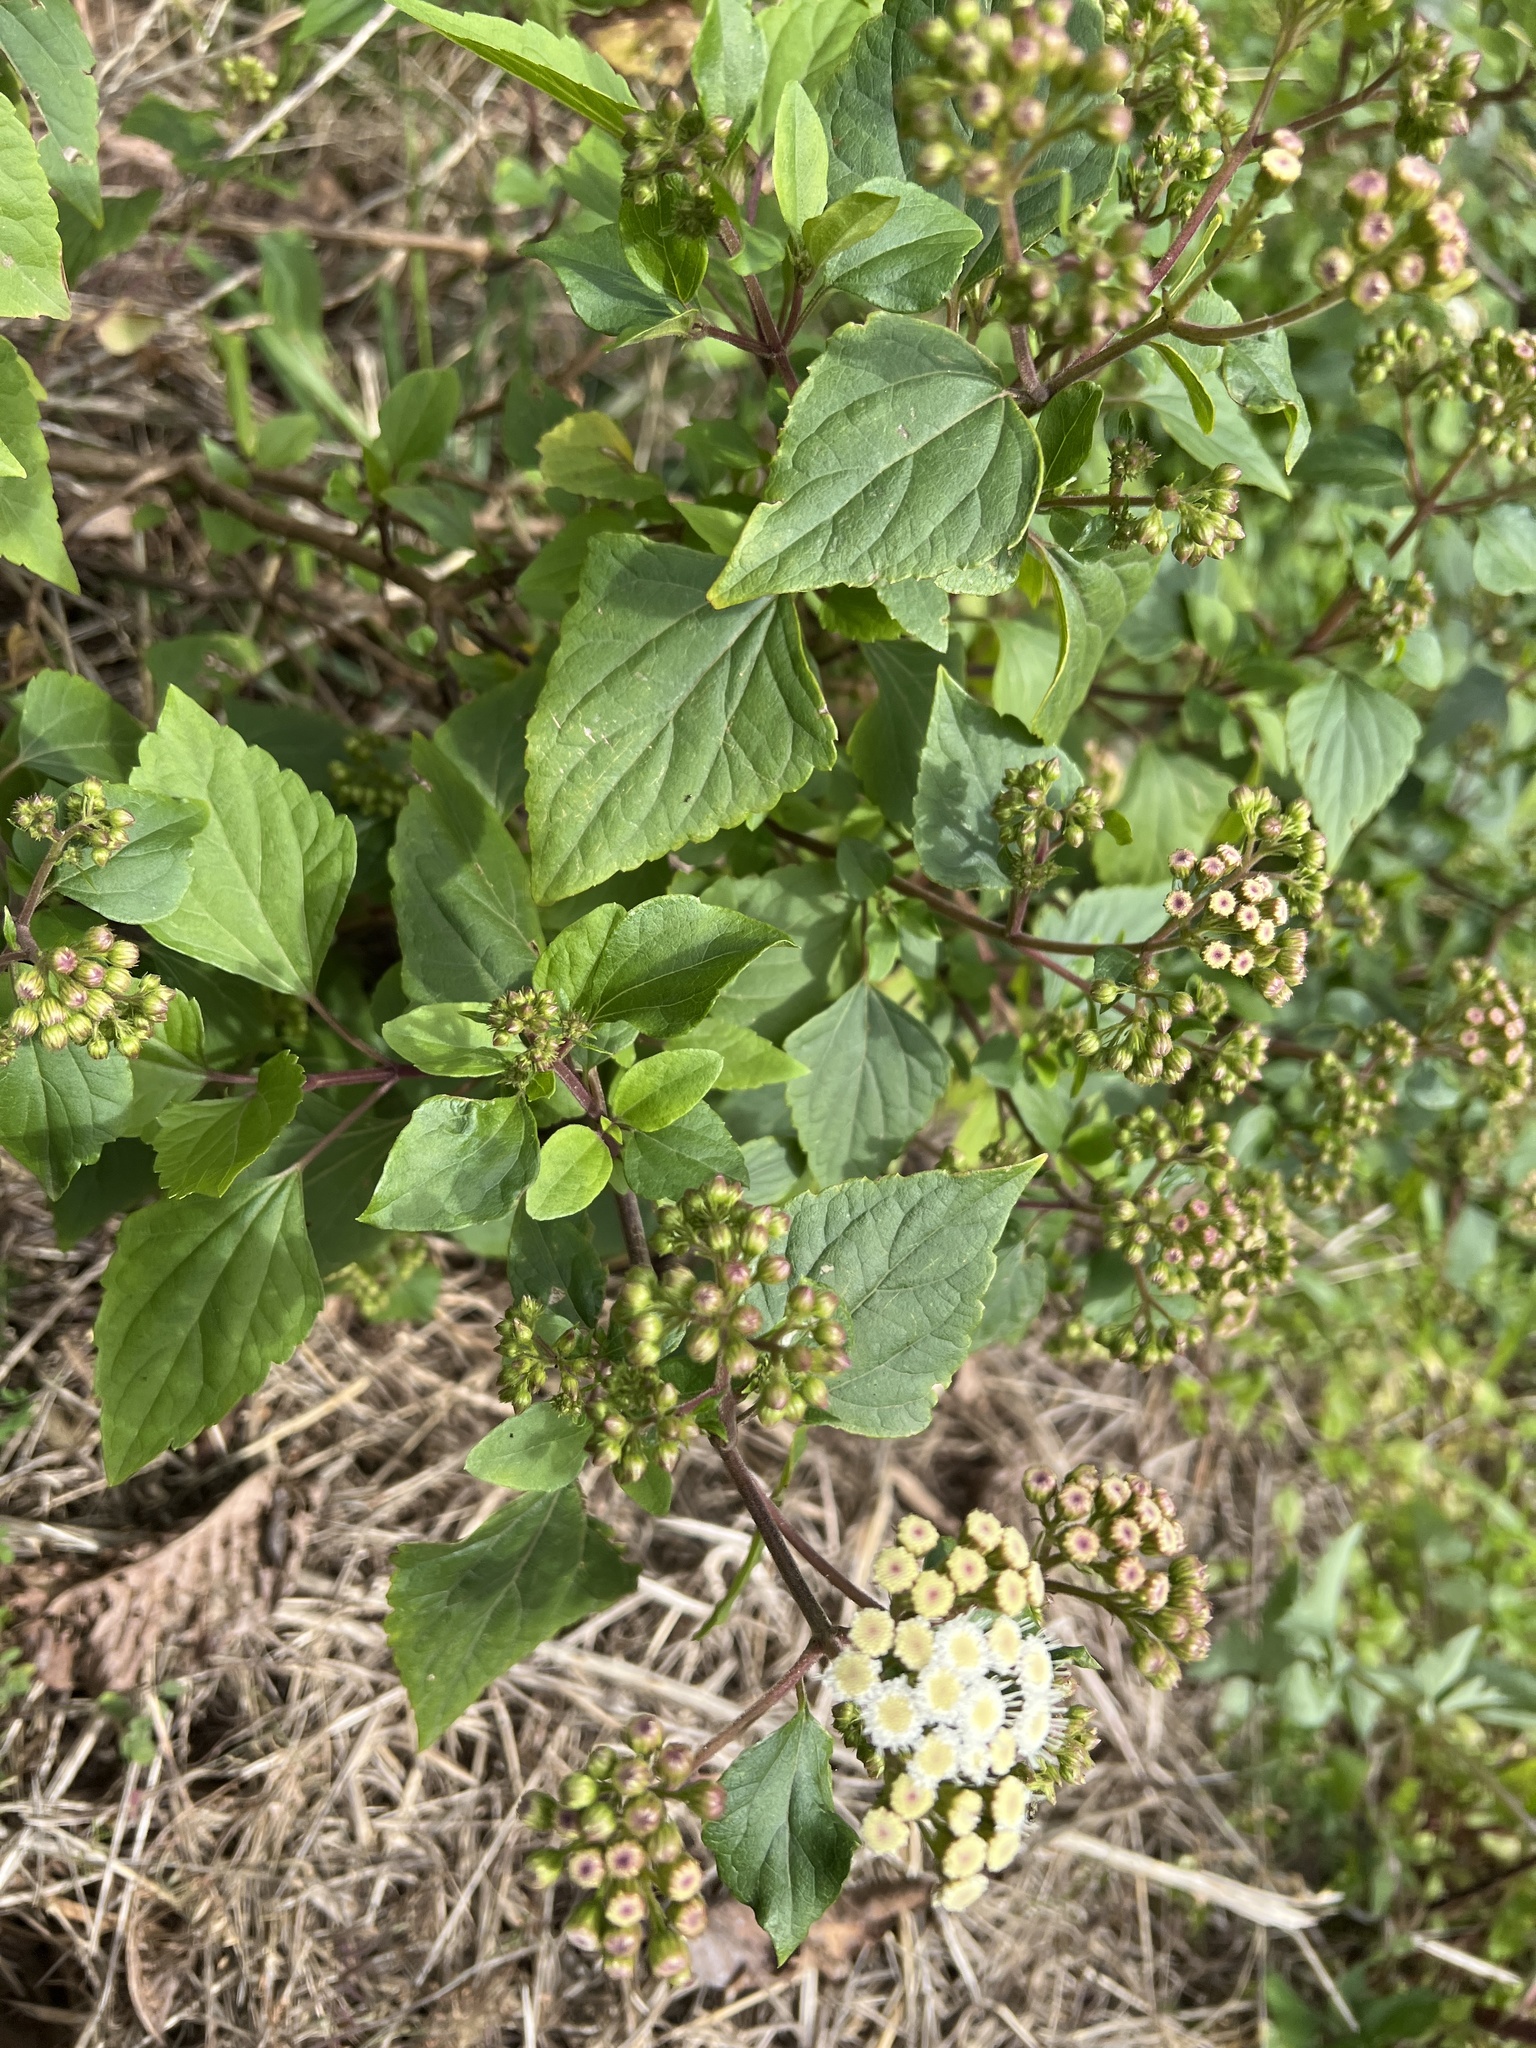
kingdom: Plantae
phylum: Tracheophyta
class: Magnoliopsida
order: Asterales
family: Asteraceae
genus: Ageratina
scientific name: Ageratina adenophora
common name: Sticky snakeroot
